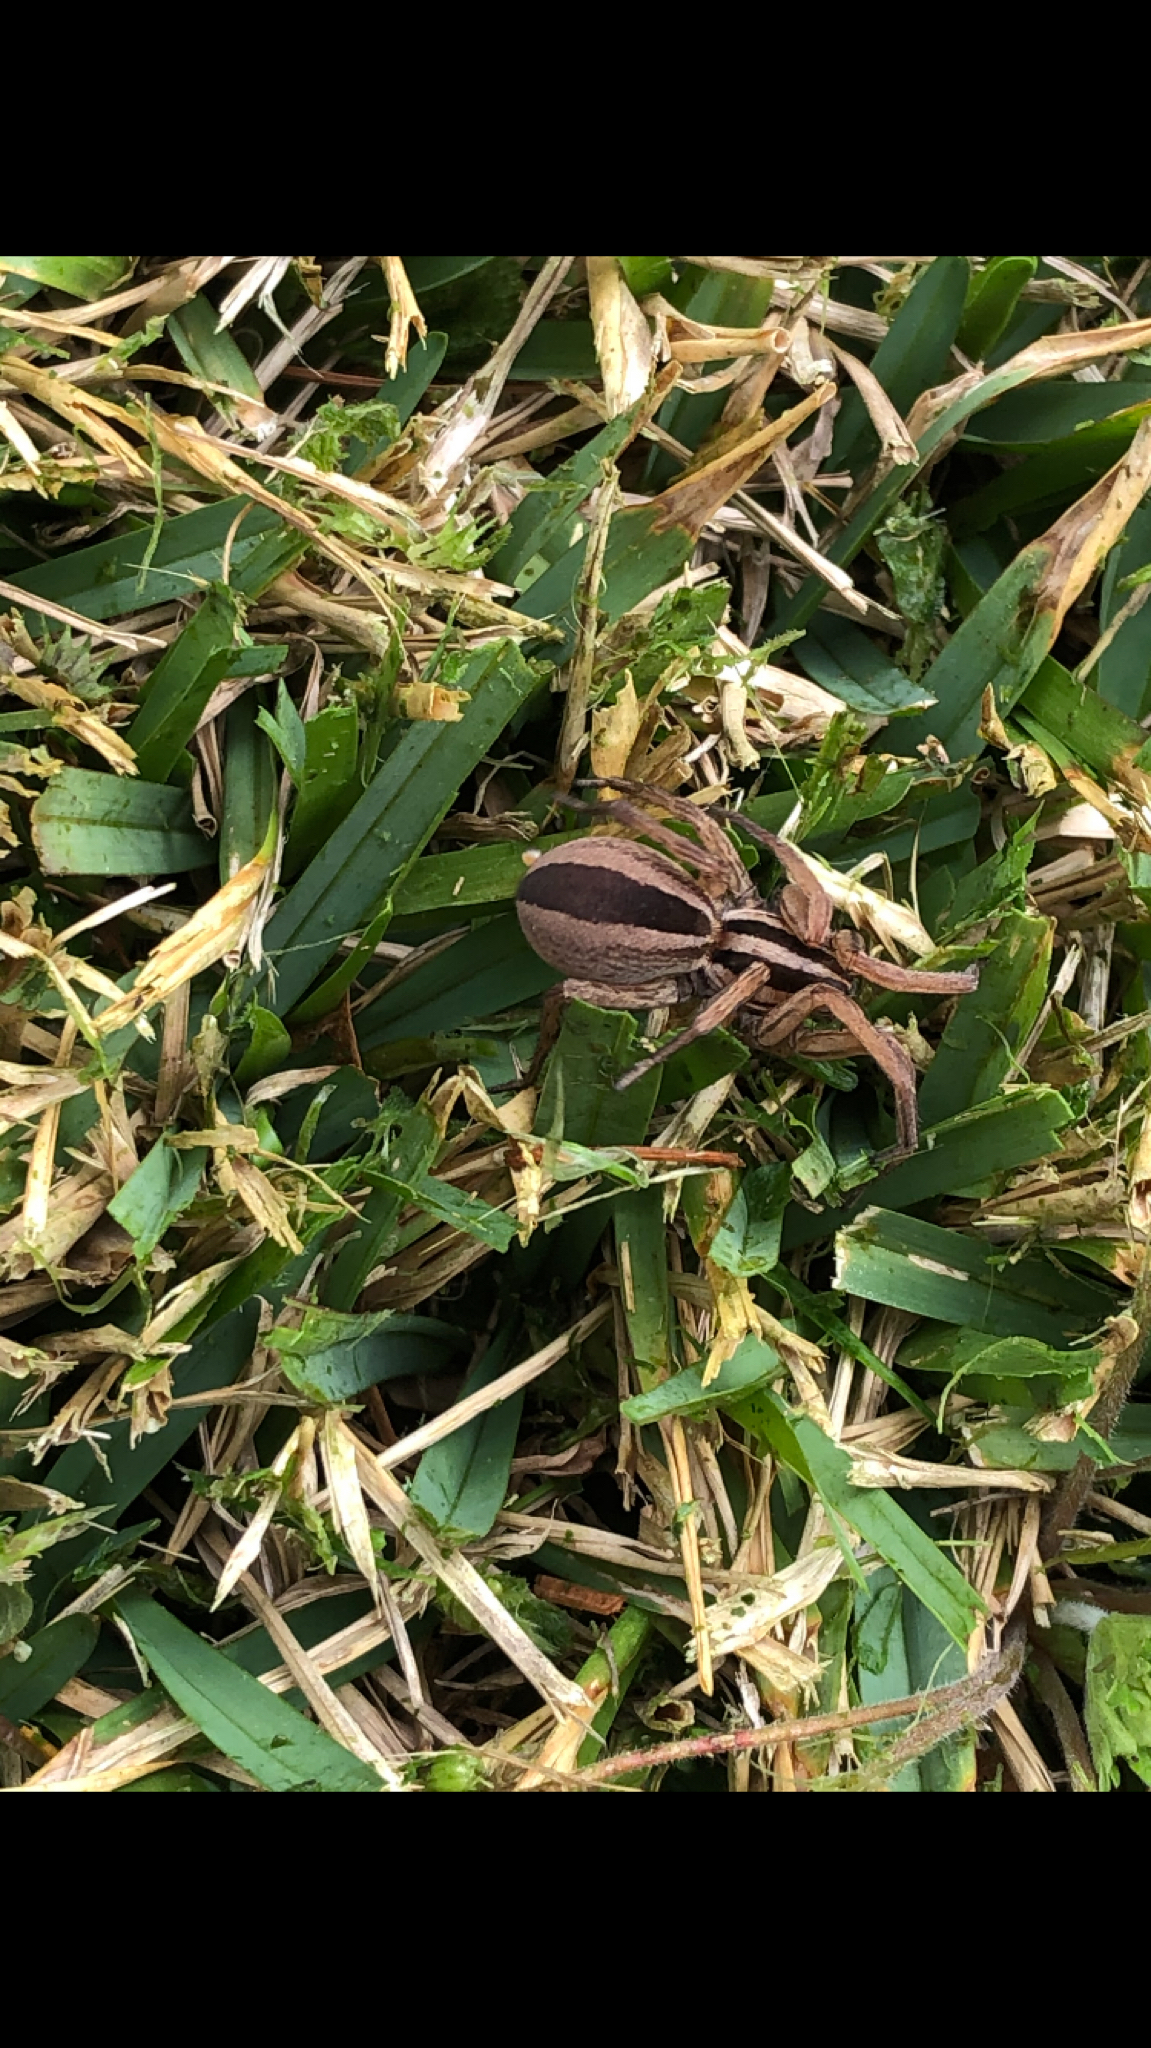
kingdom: Animalia
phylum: Arthropoda
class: Arachnida
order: Araneae
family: Lycosidae
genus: Rabidosa
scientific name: Rabidosa punctulata
